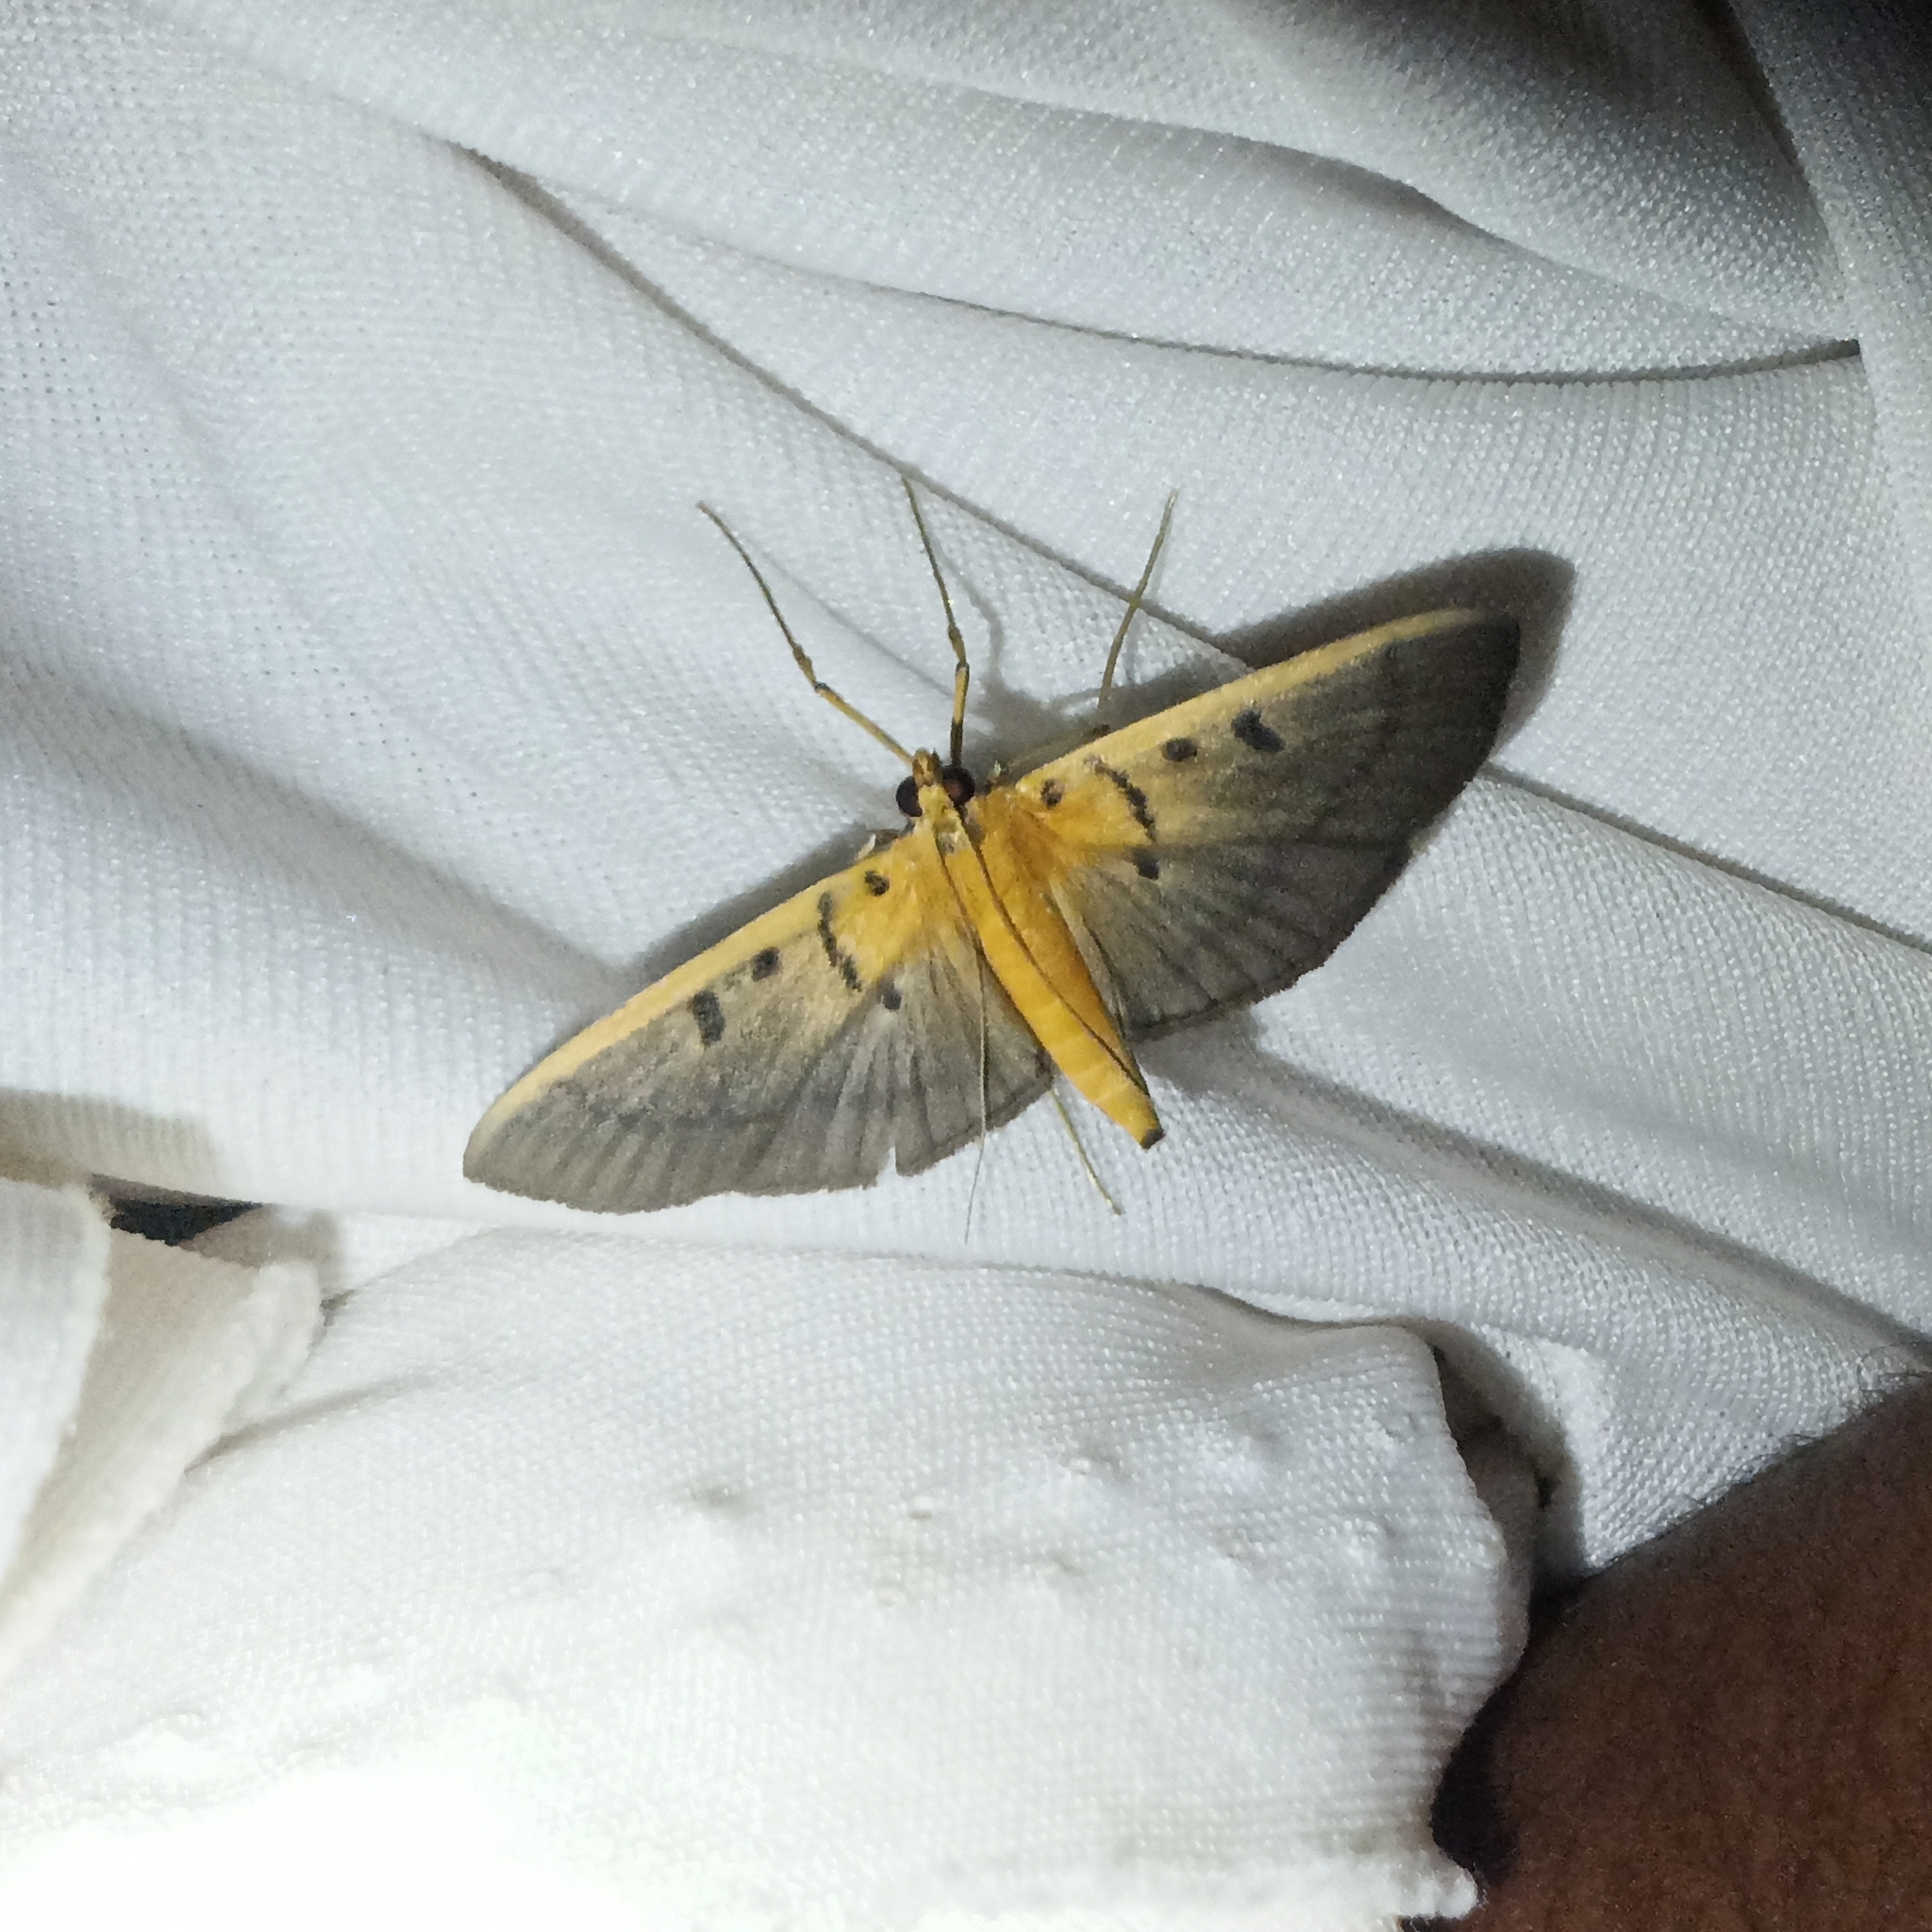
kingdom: Animalia
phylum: Arthropoda
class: Insecta
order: Lepidoptera
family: Crambidae
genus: Filodes
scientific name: Filodes bilinealis
